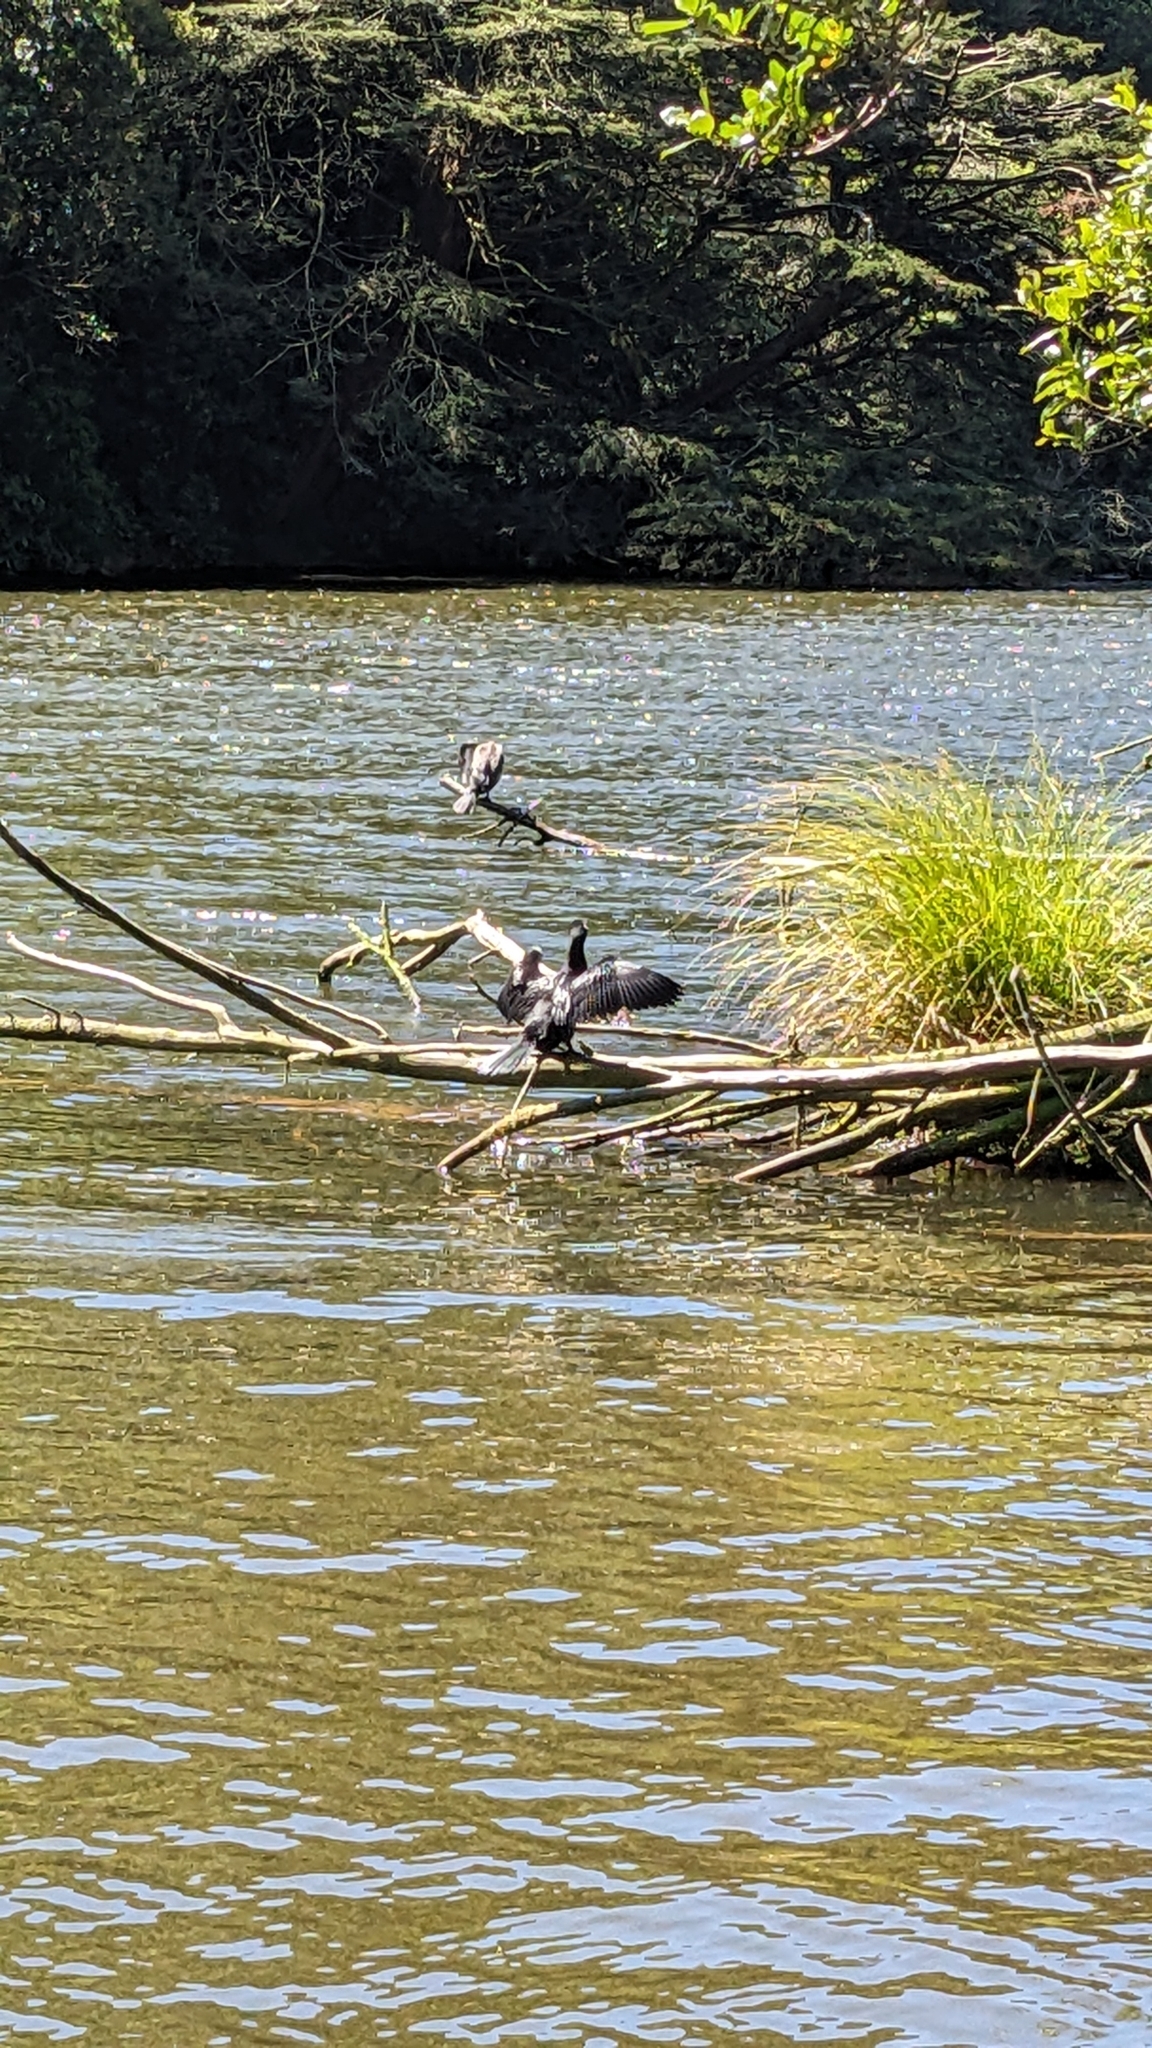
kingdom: Animalia
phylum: Chordata
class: Aves
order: Suliformes
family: Phalacrocoracidae
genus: Microcarbo
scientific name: Microcarbo melanoleucos
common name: Little pied cormorant
